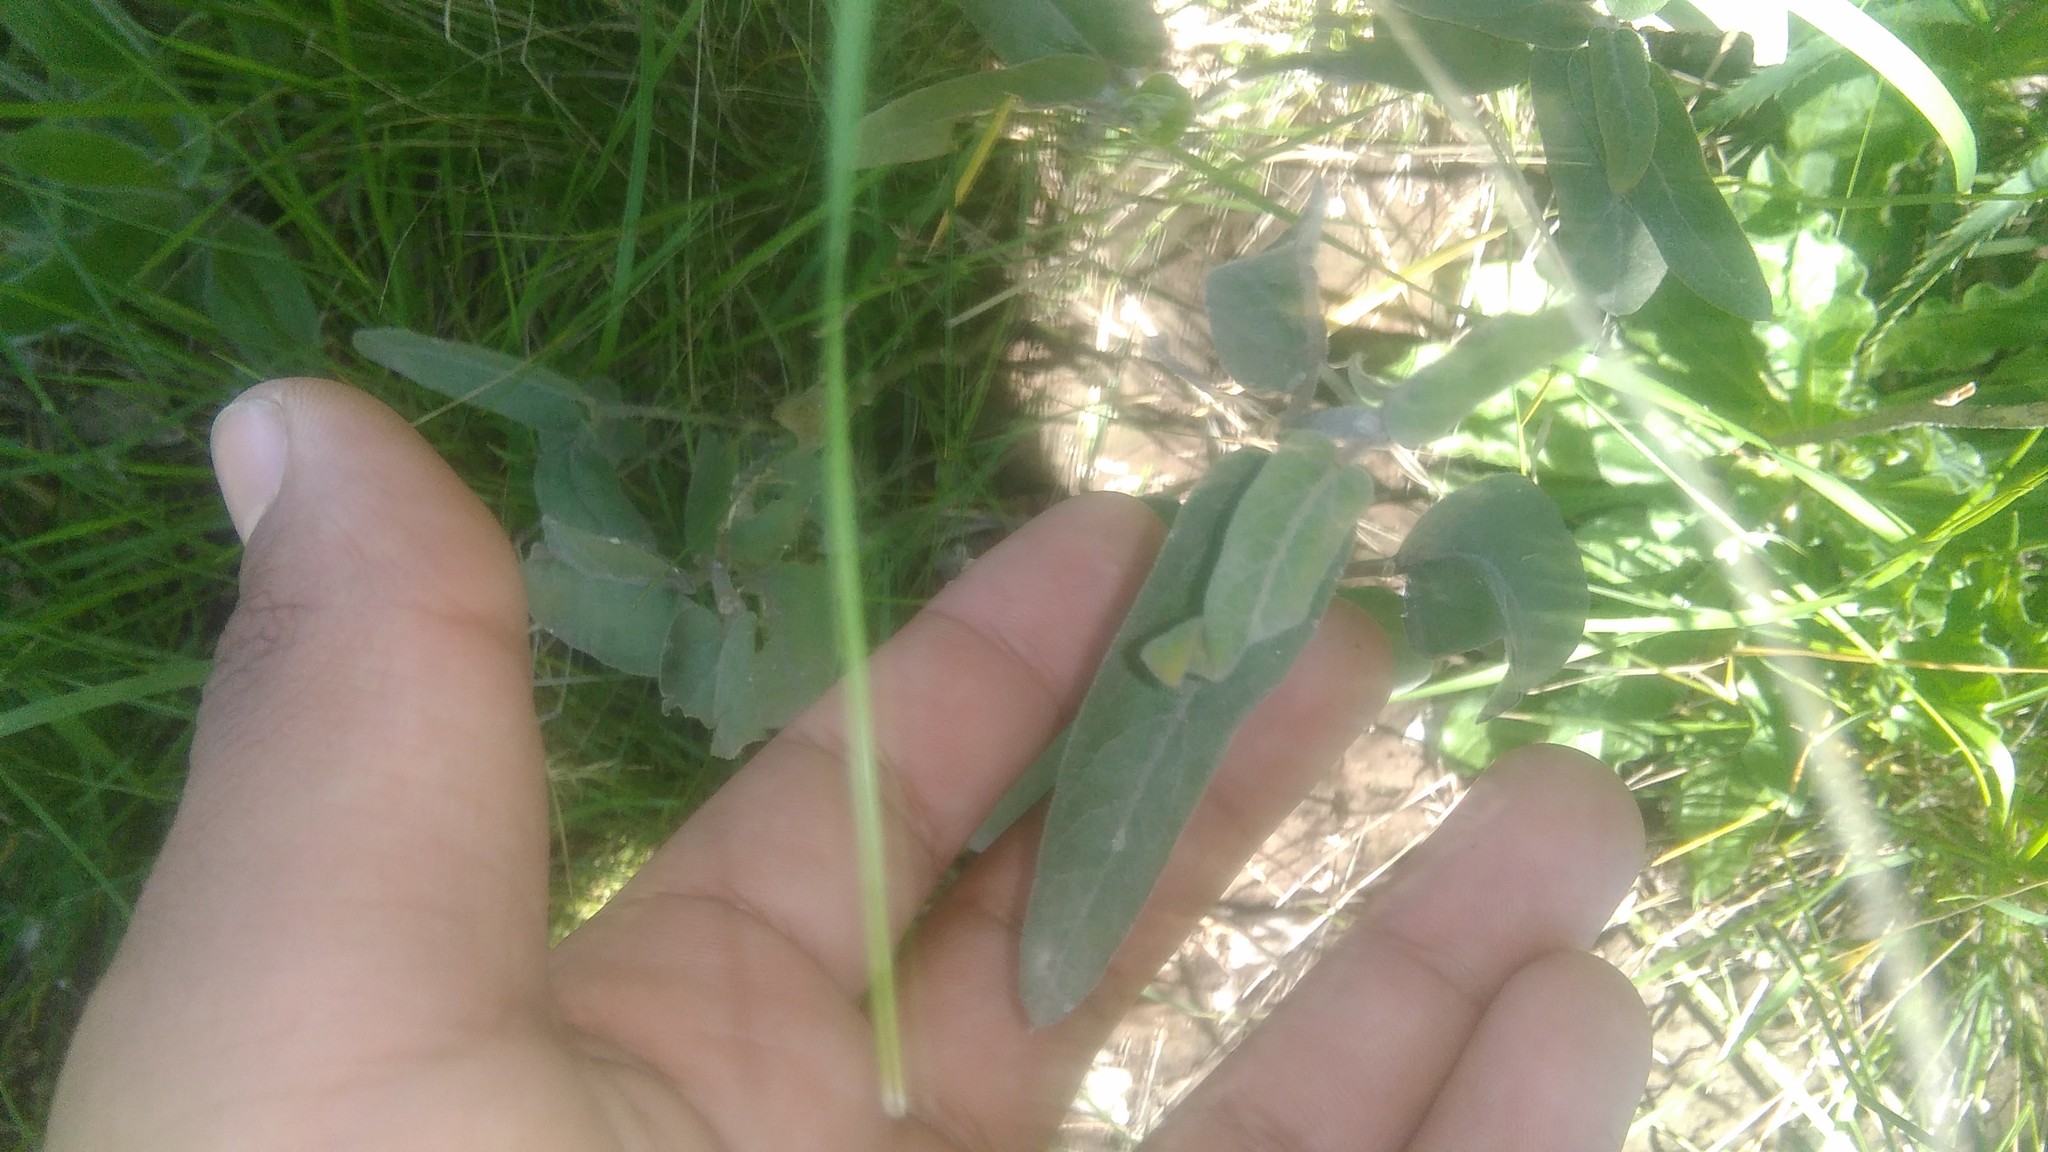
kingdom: Plantae
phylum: Tracheophyta
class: Magnoliopsida
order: Gentianales
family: Apocynaceae
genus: Araujia
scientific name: Araujia sericifera
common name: White bladderflower
